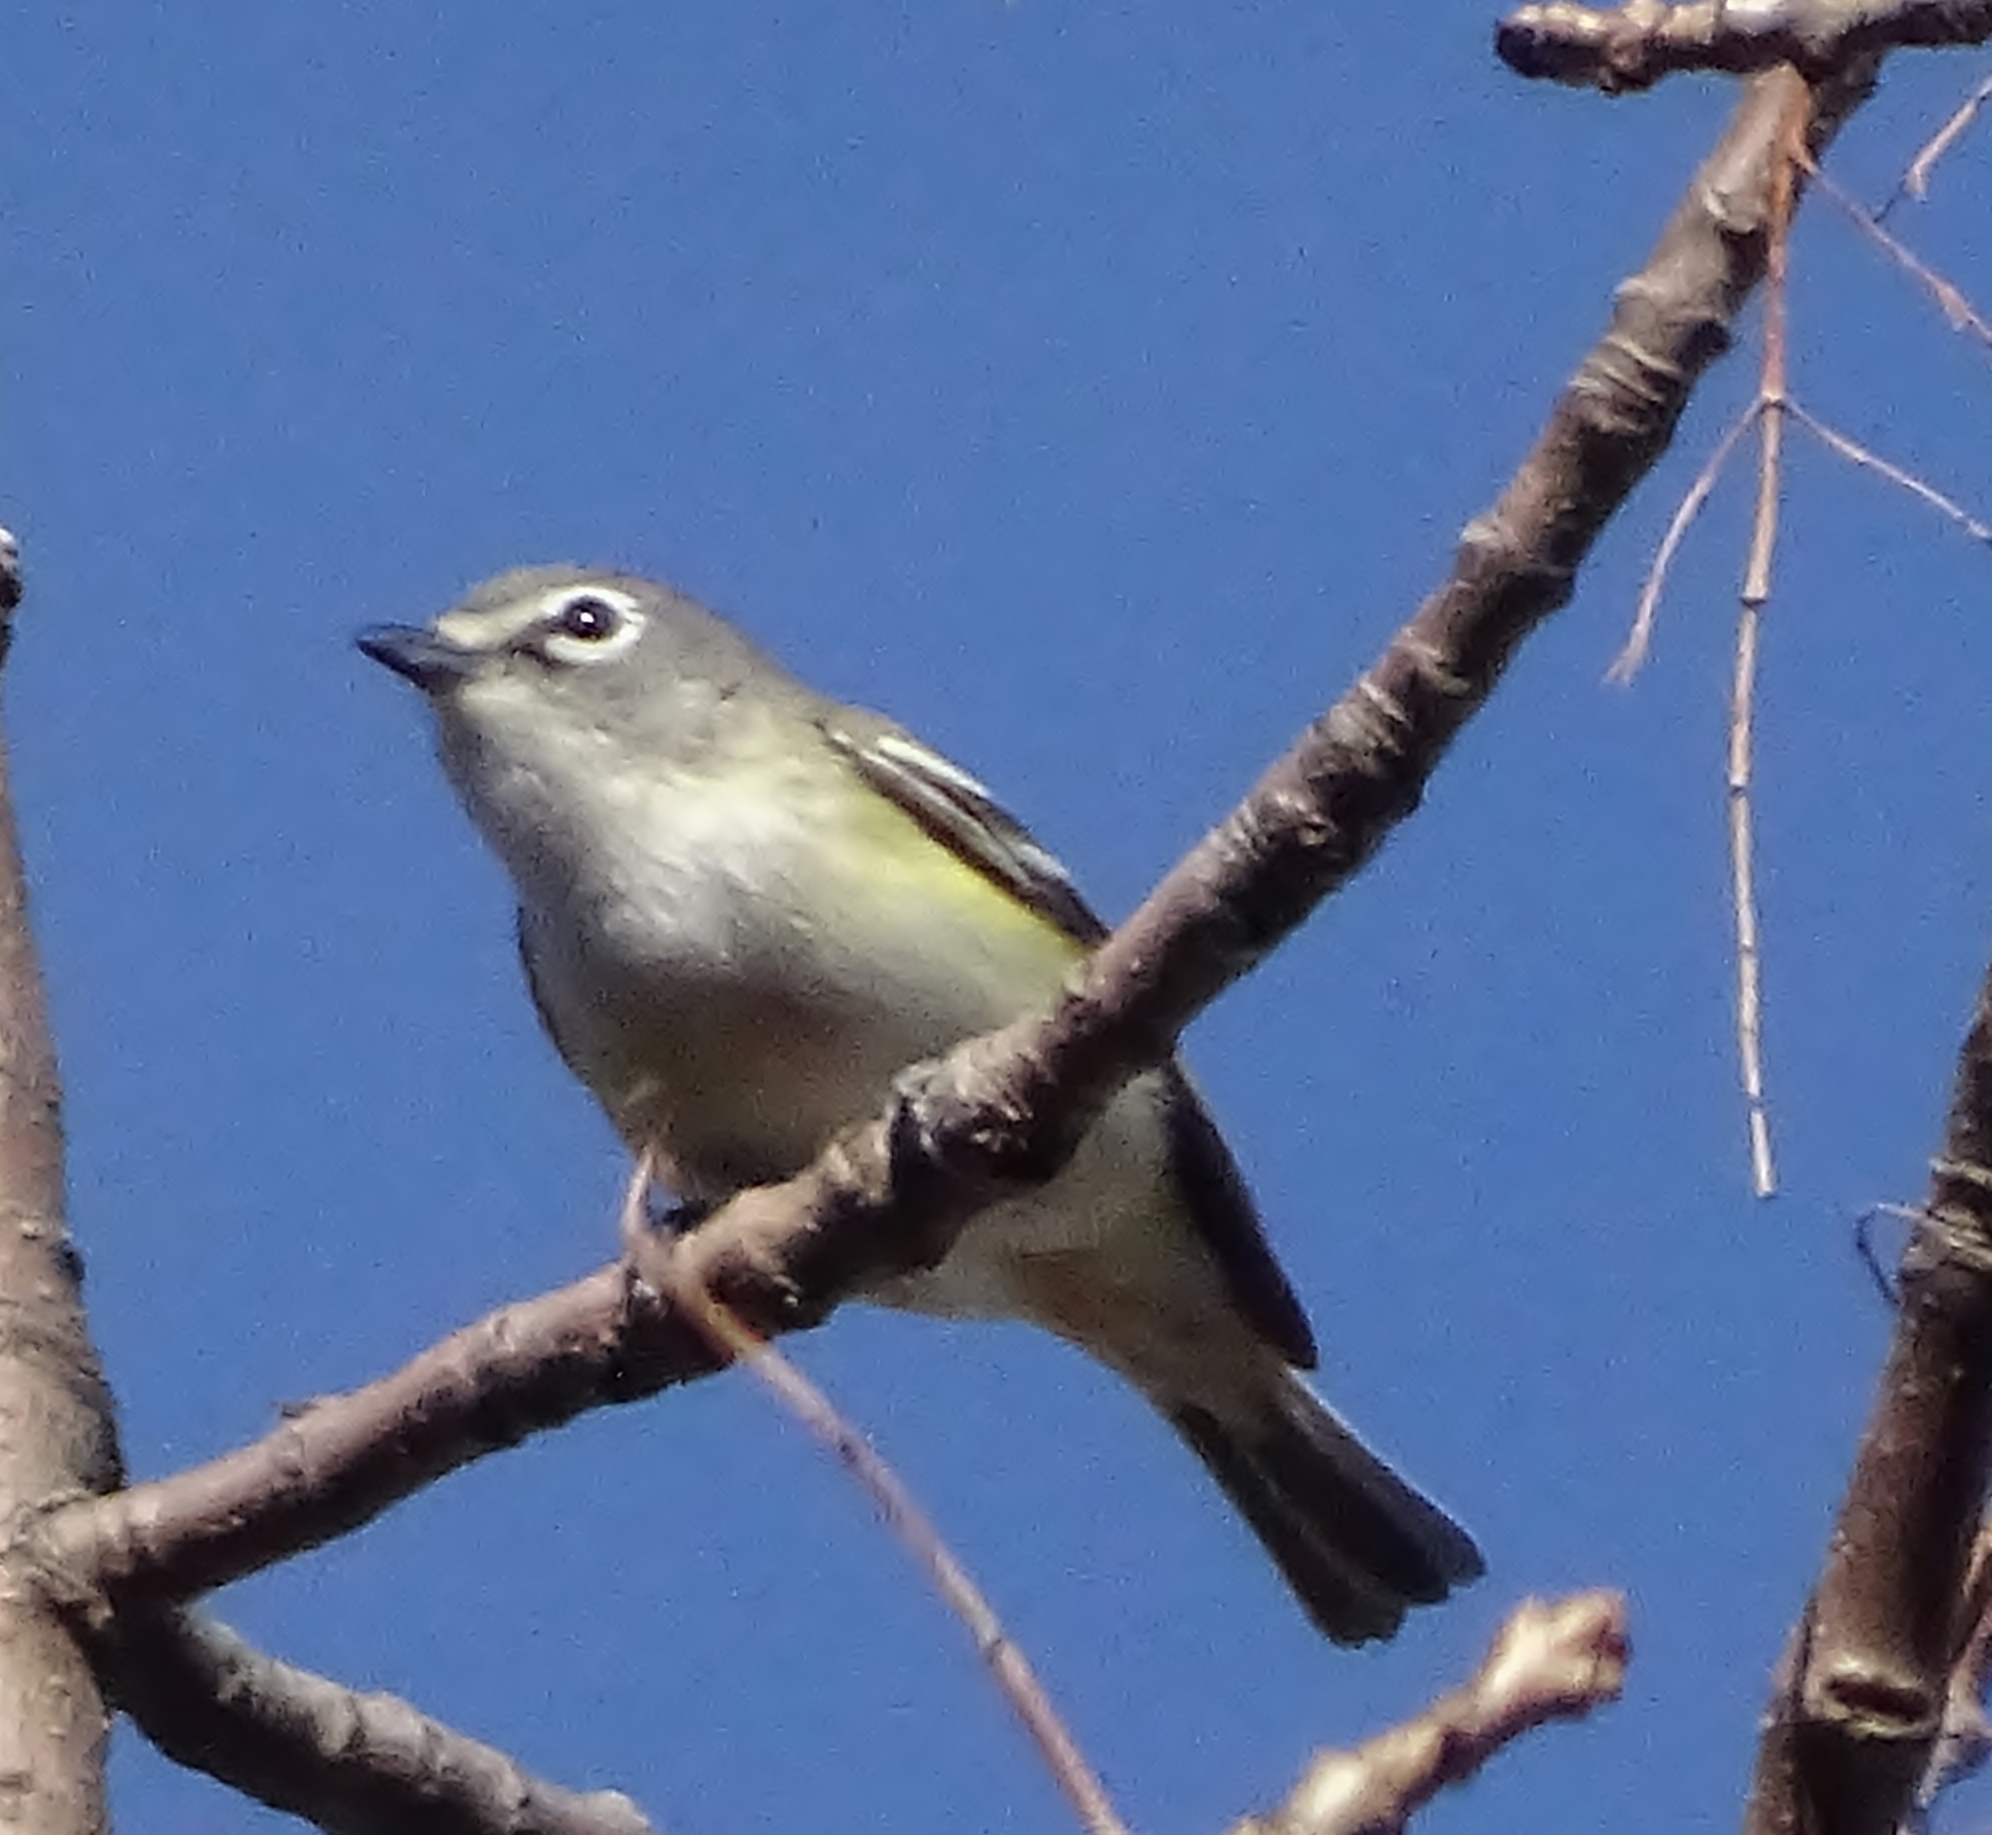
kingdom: Animalia
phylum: Chordata
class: Aves
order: Passeriformes
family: Vireonidae
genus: Vireo
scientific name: Vireo solitarius
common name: Blue-headed vireo
